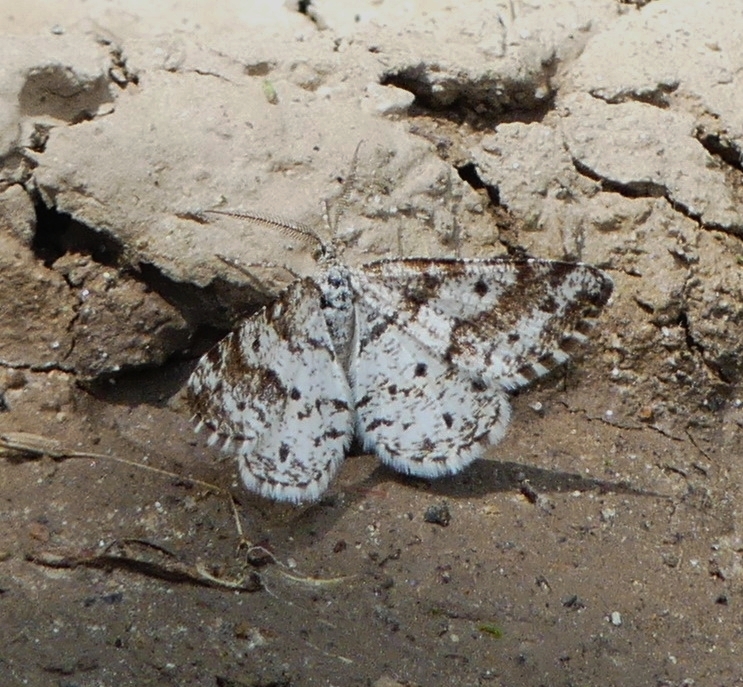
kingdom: Animalia
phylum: Arthropoda
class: Insecta
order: Lepidoptera
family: Geometridae
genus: Eufidonia
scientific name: Eufidonia notataria
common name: Powder moth
